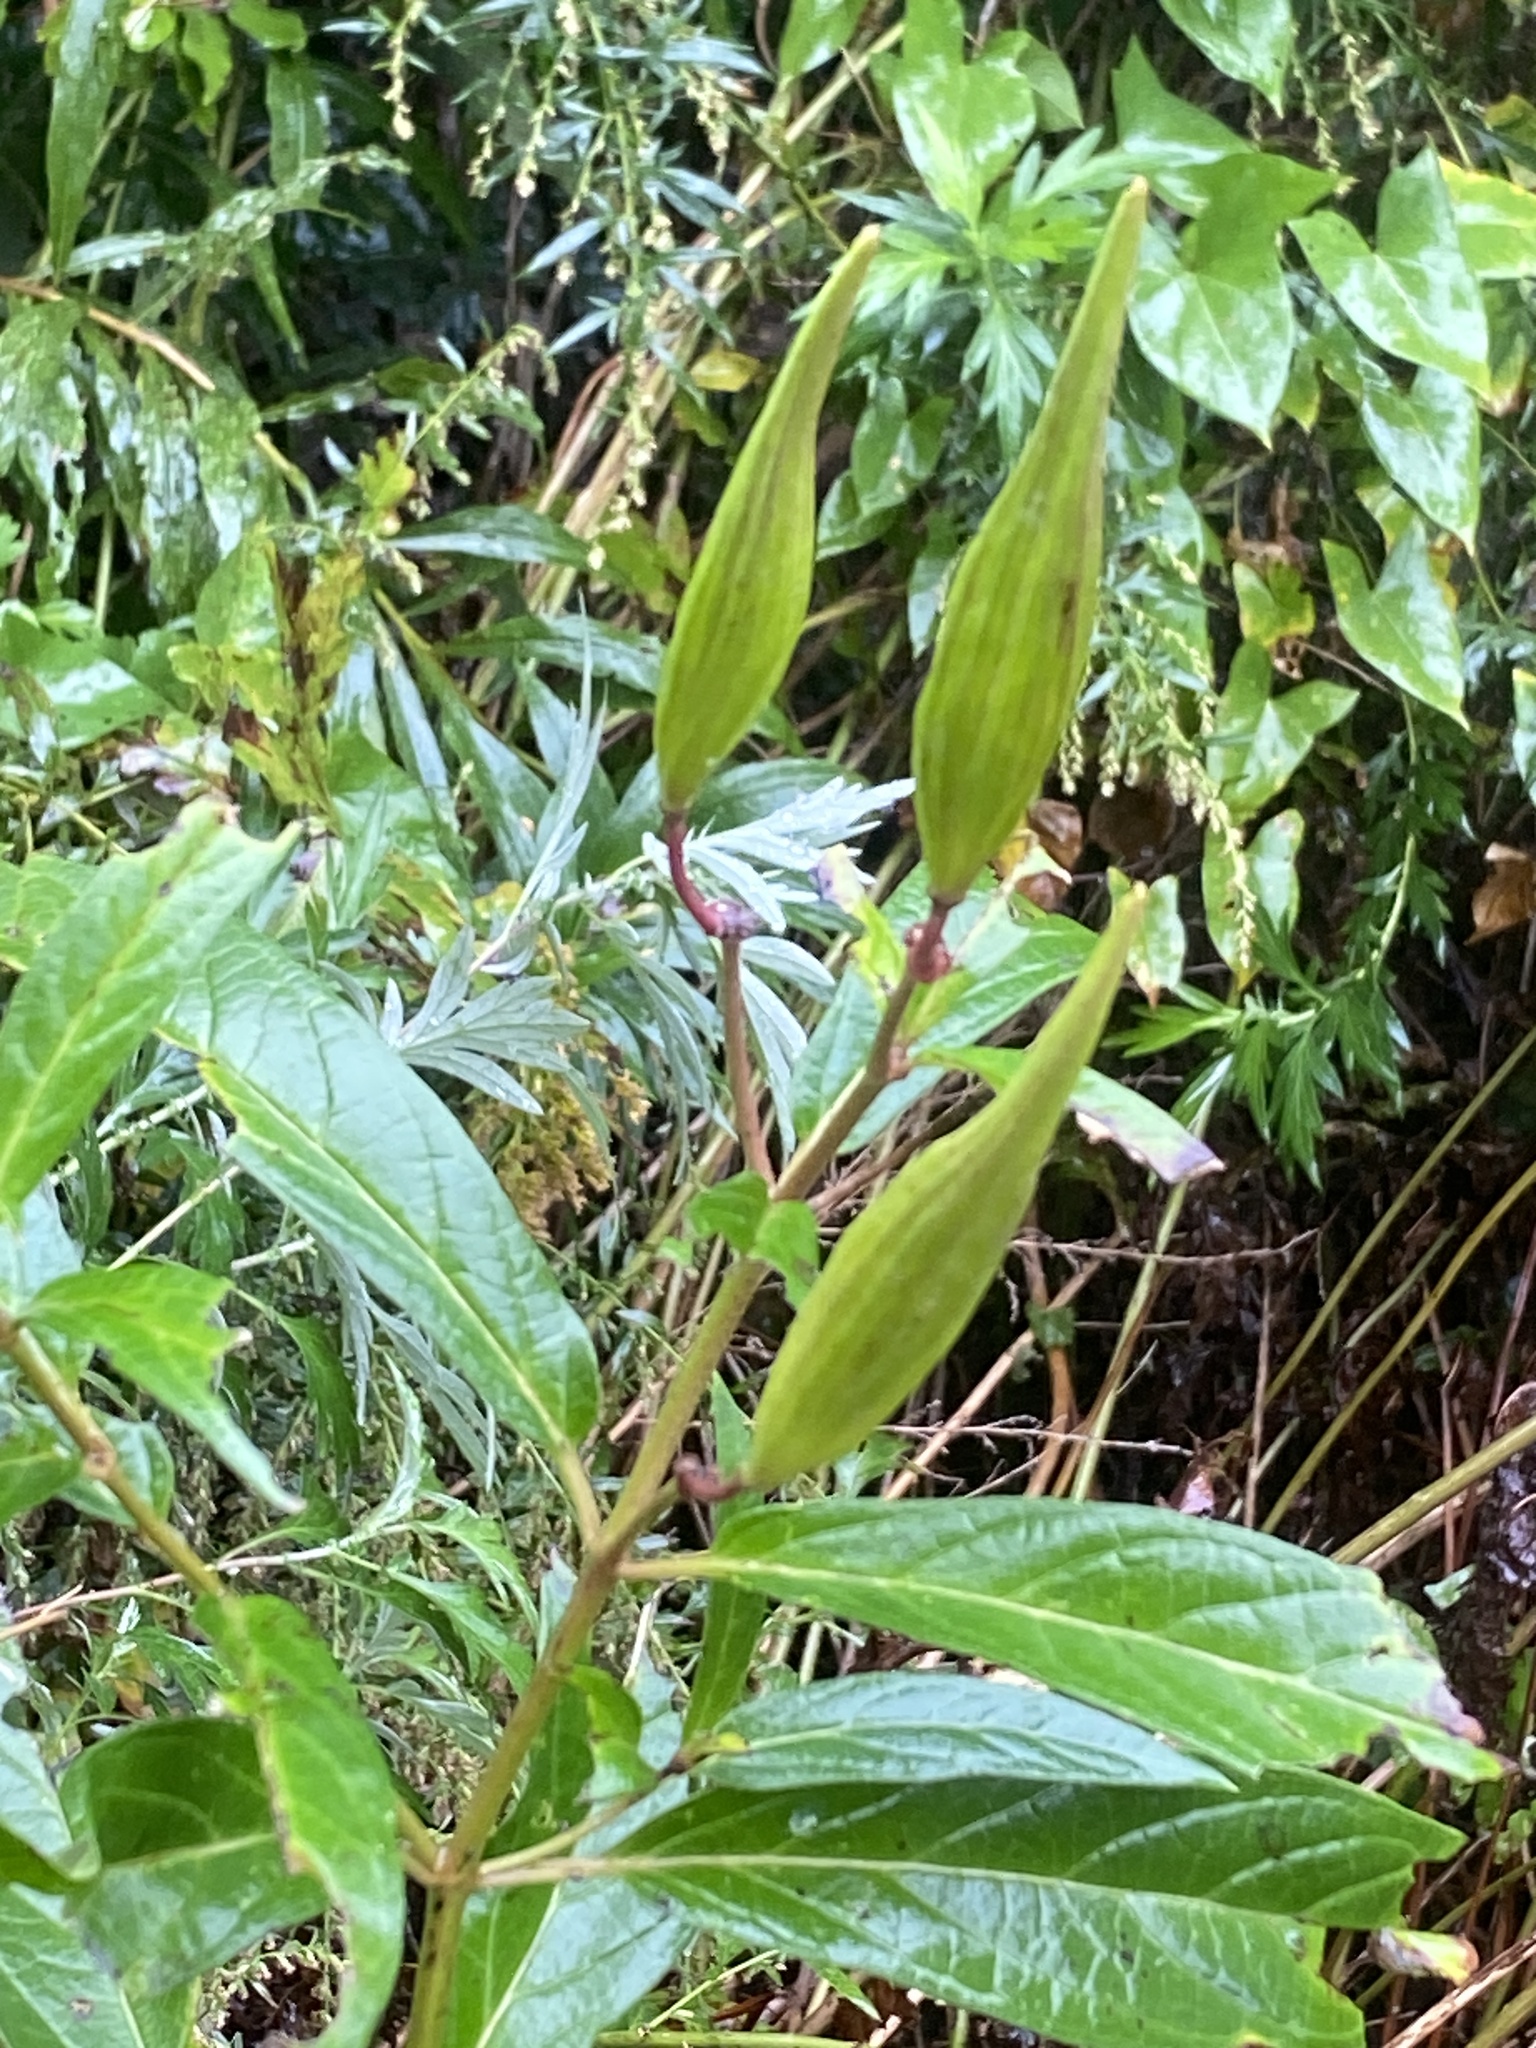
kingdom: Plantae
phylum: Tracheophyta
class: Magnoliopsida
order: Gentianales
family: Apocynaceae
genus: Asclepias
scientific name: Asclepias incarnata
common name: Swamp milkweed
